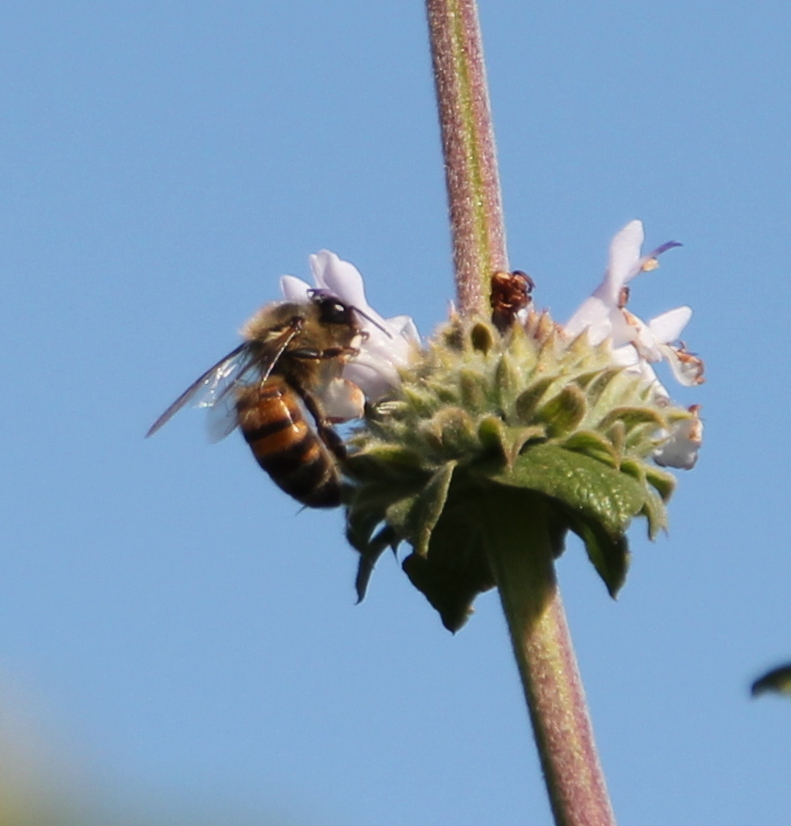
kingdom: Animalia
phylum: Arthropoda
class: Insecta
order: Hymenoptera
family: Apidae
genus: Apis
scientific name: Apis mellifera
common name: Honey bee
